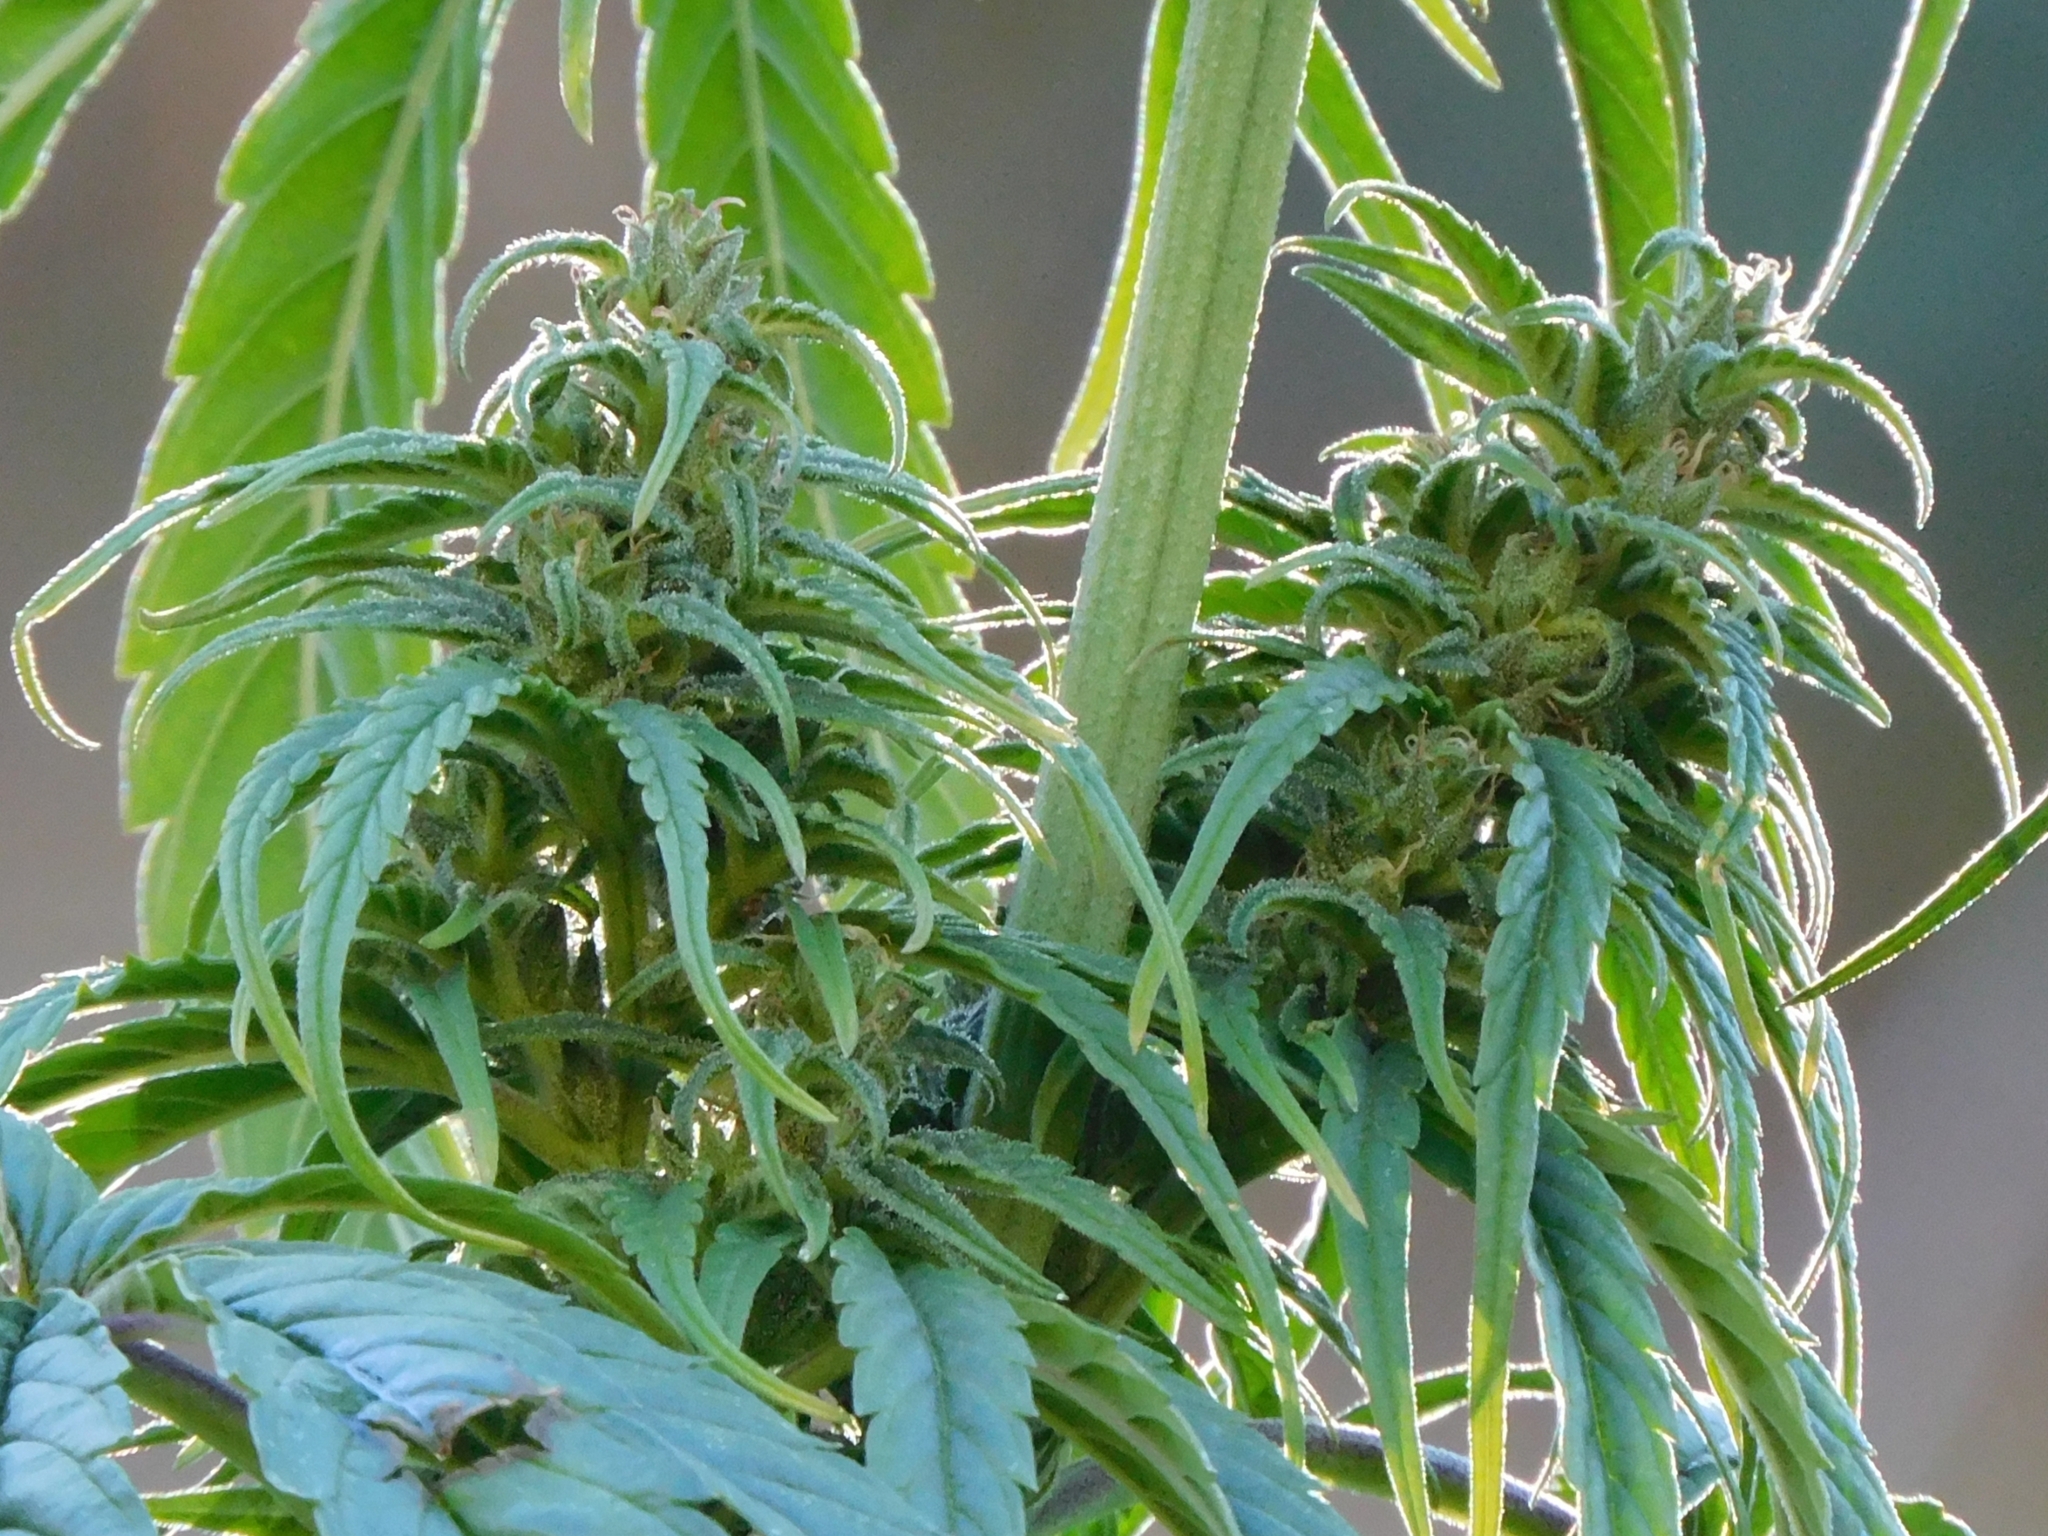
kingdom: Plantae
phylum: Tracheophyta
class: Magnoliopsida
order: Rosales
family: Cannabaceae
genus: Cannabis
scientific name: Cannabis sativa
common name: Hemp
